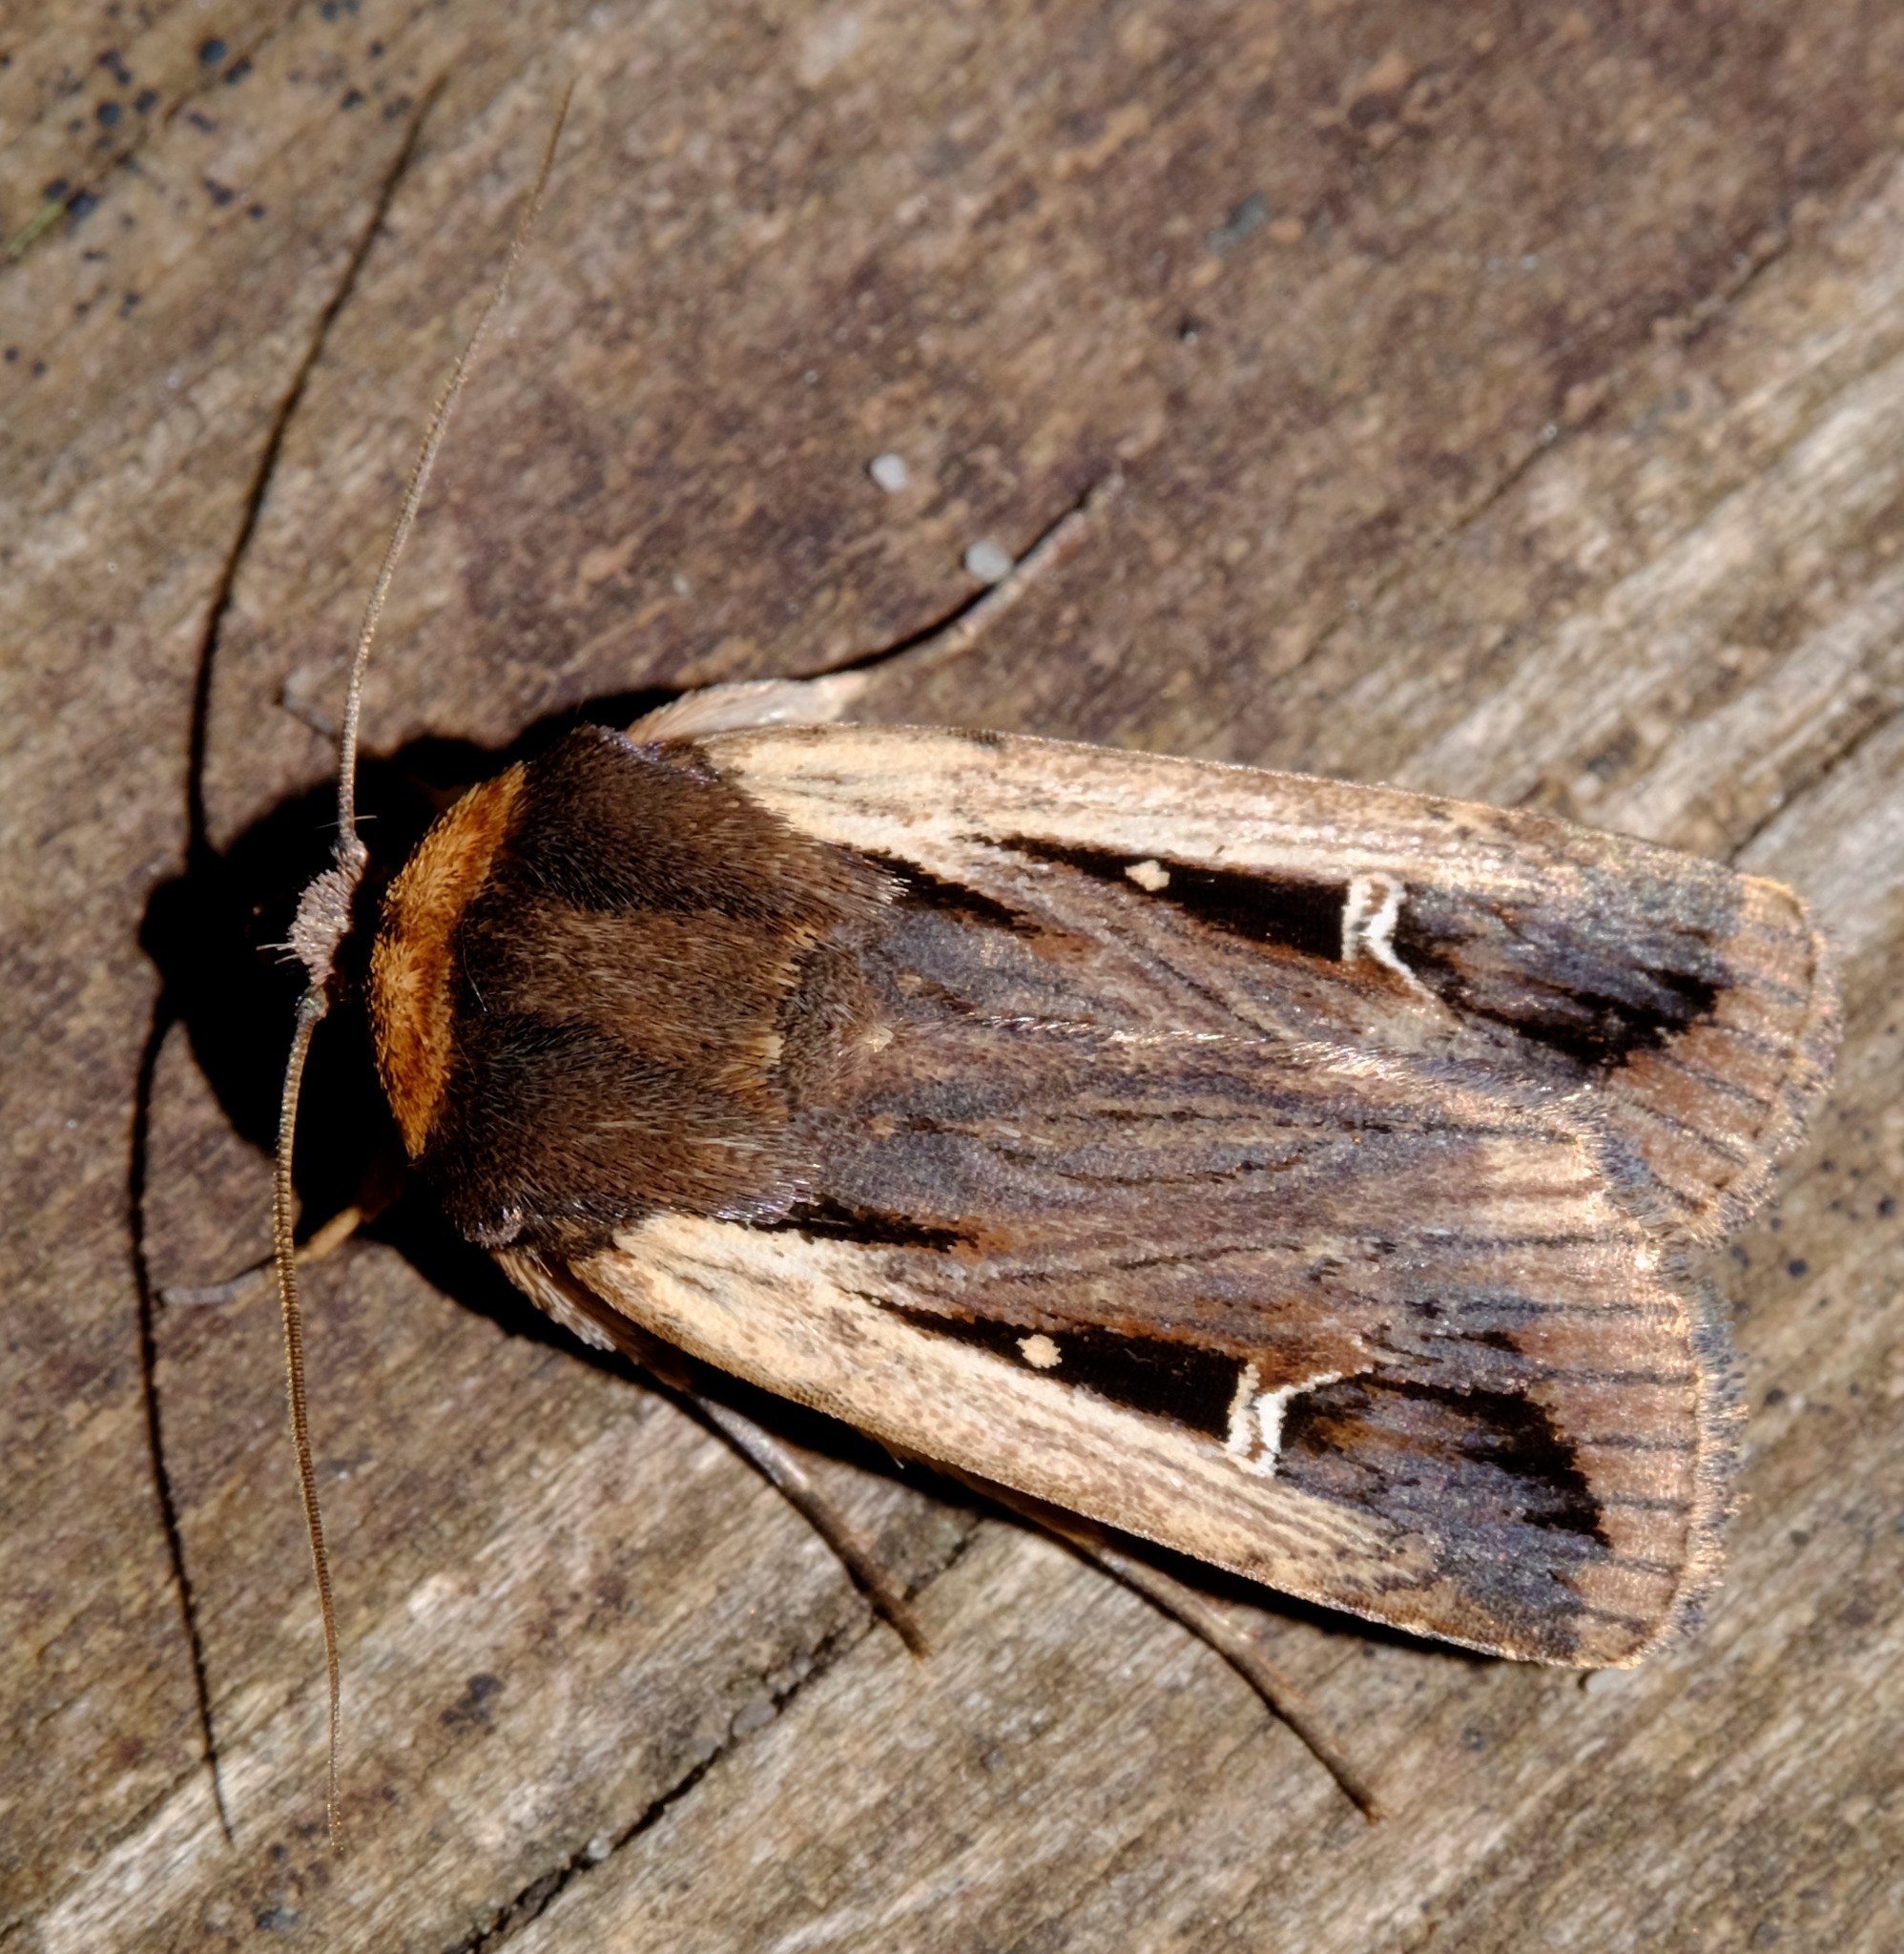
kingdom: Animalia
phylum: Arthropoda
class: Insecta
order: Lepidoptera
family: Noctuidae
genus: Proteuxoa
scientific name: Proteuxoa tortisigna
